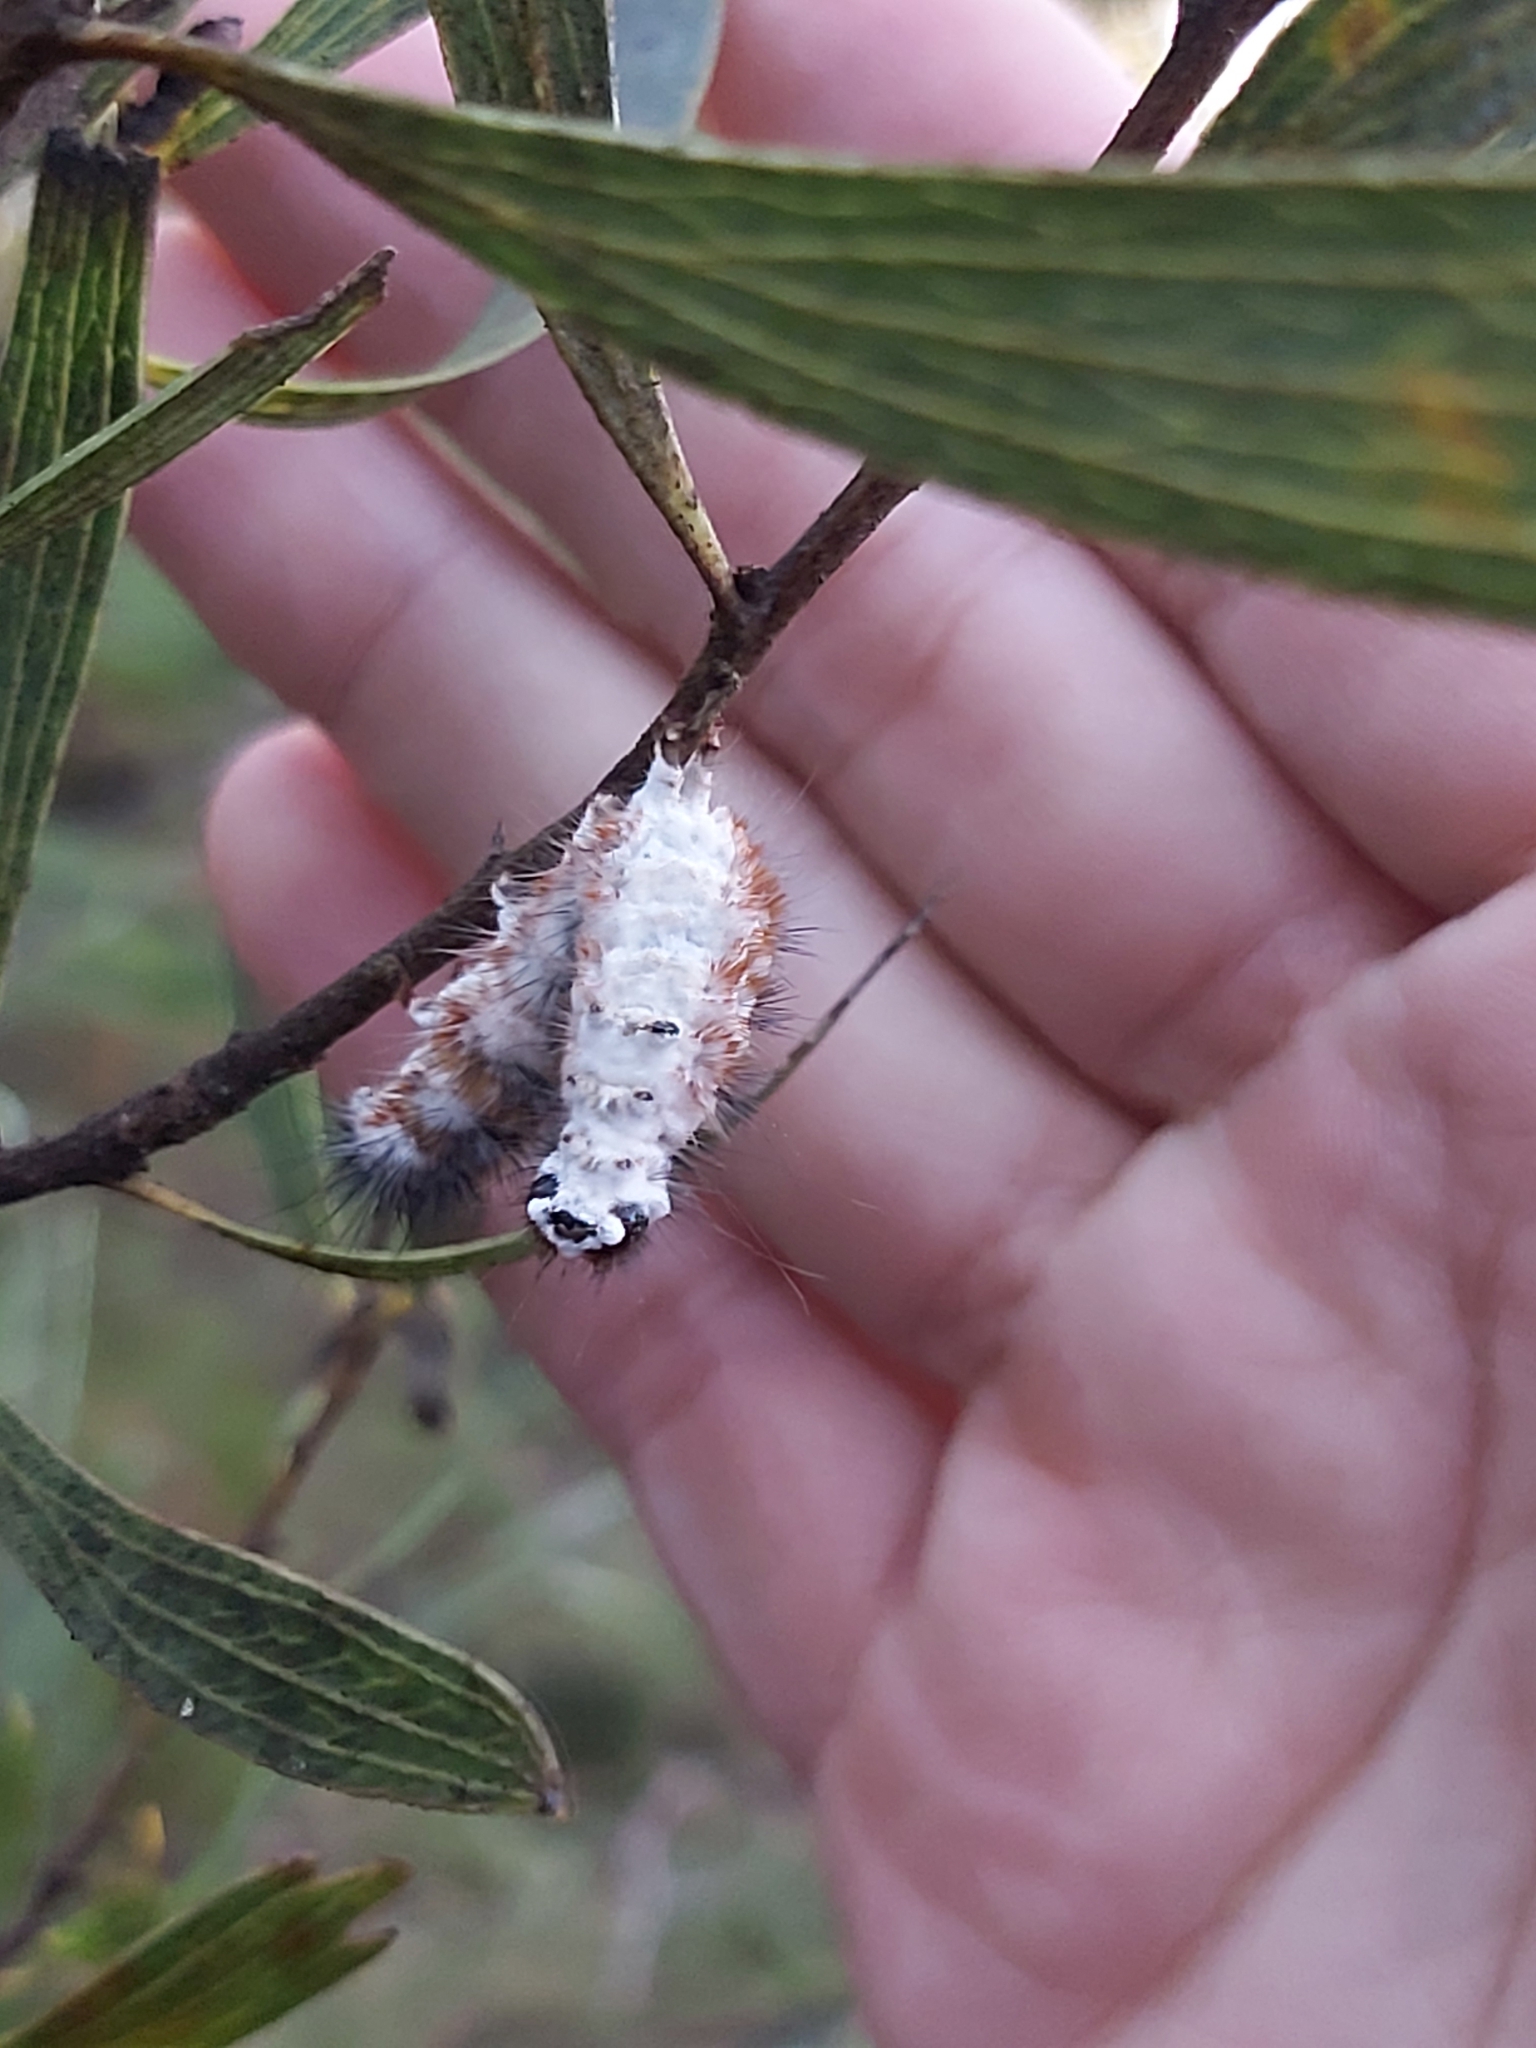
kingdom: Fungi
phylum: Ascomycota
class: Sordariomycetes
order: Hypocreales
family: Cordycipitaceae
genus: Beauveria
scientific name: Beauveria bassiana
